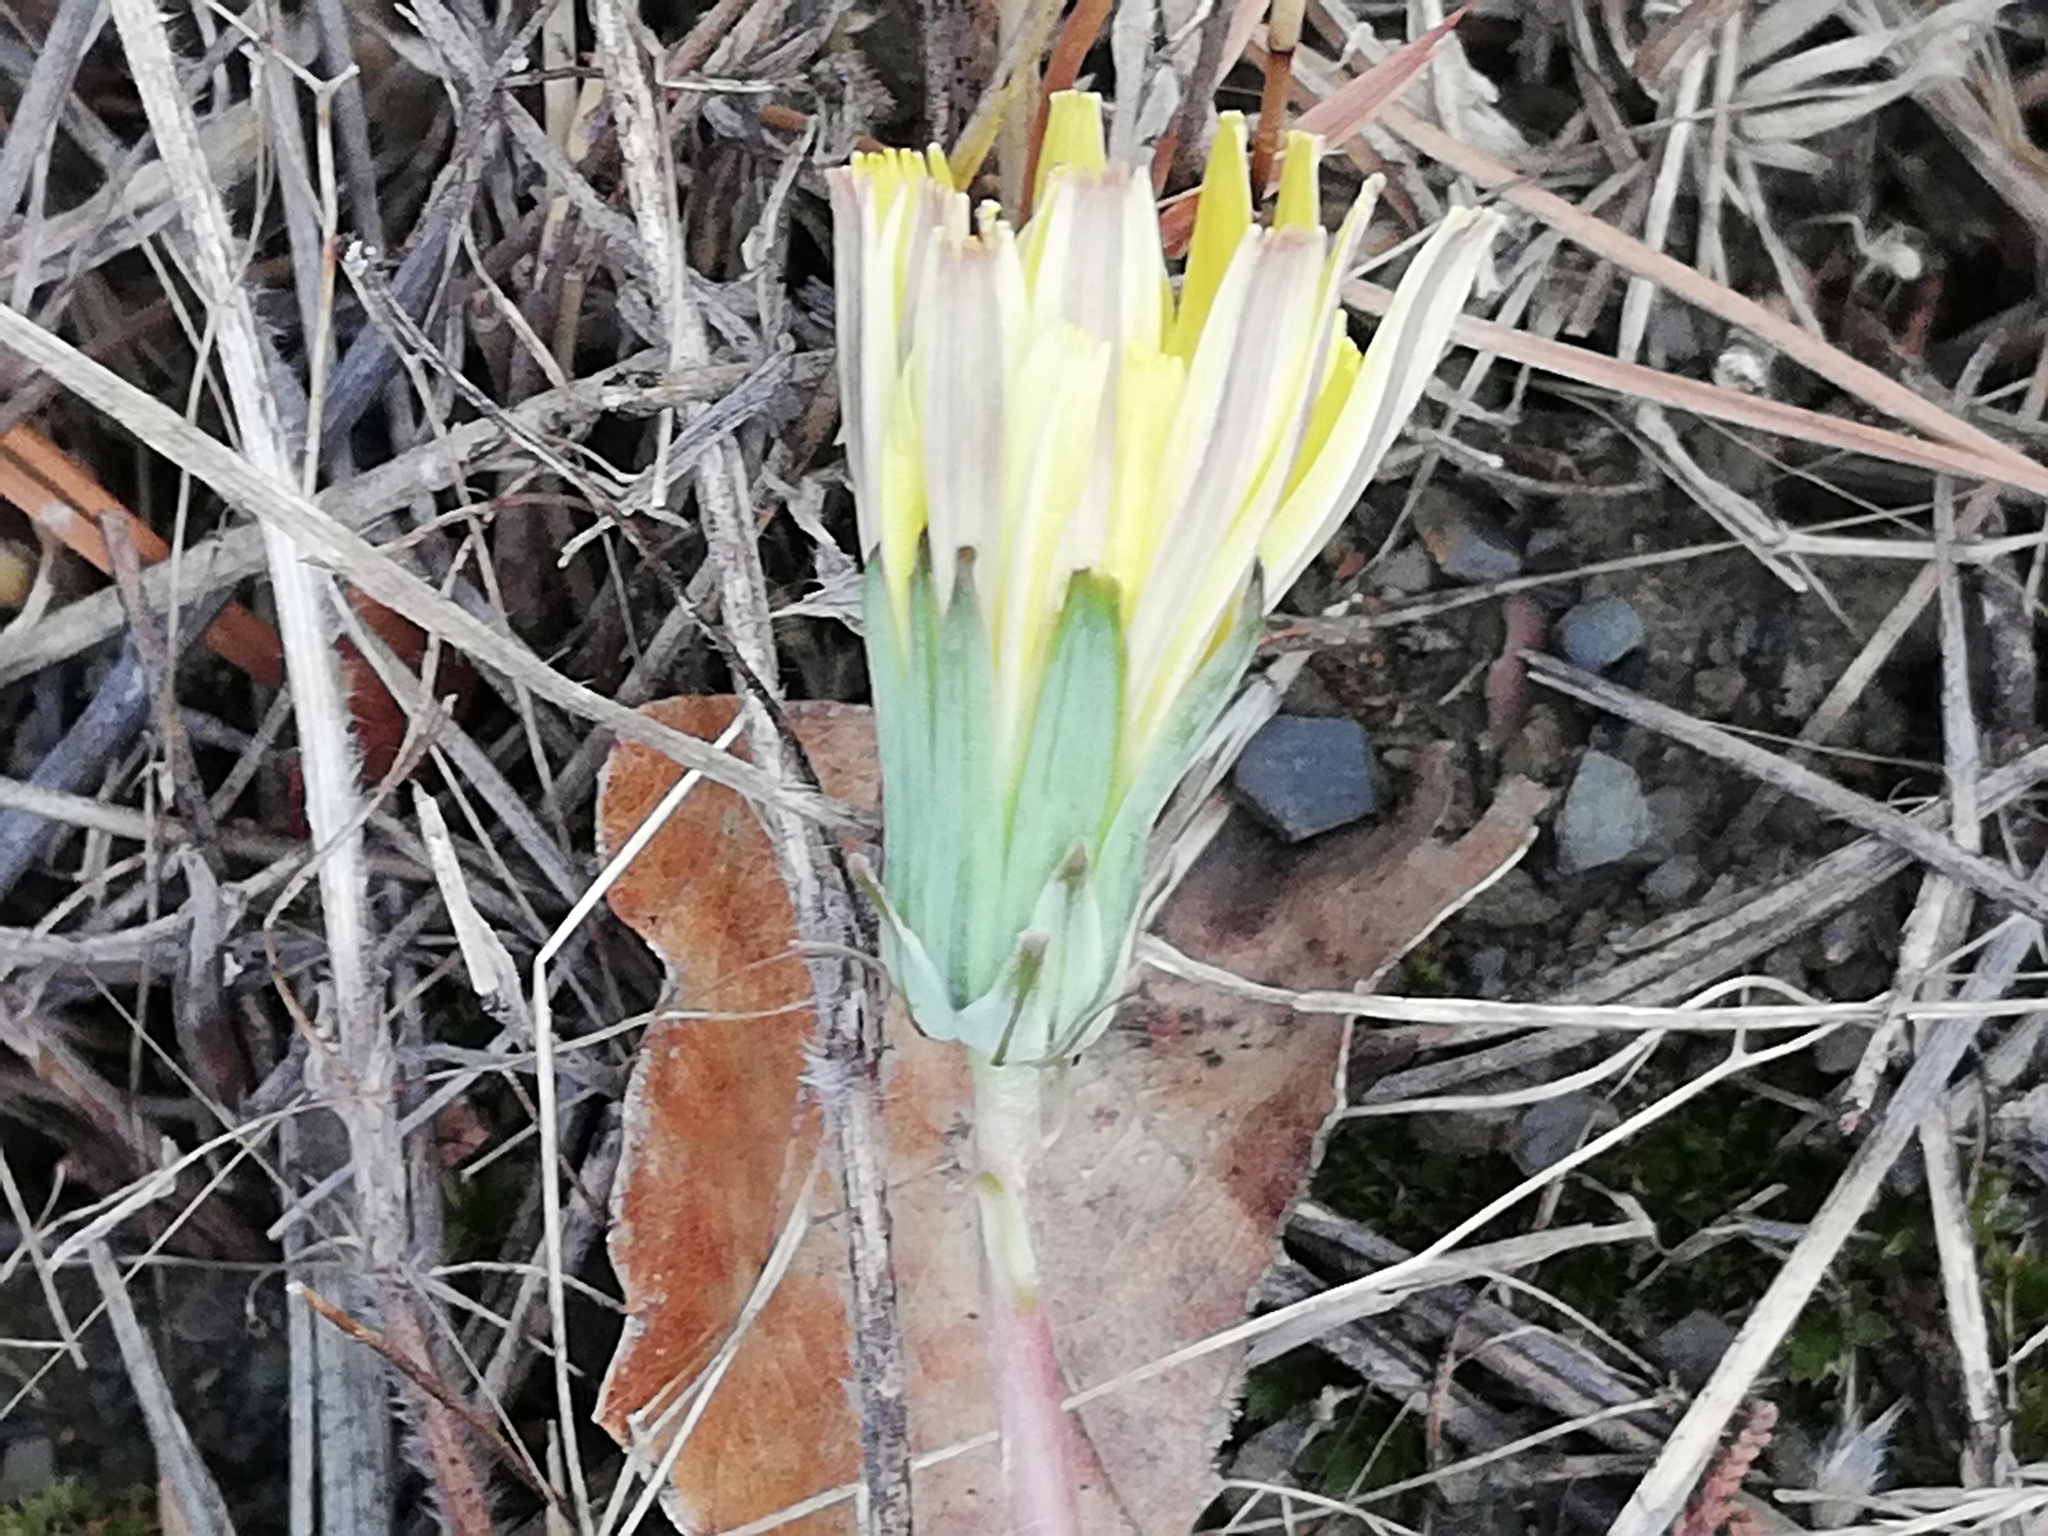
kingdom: Plantae
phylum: Tracheophyta
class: Magnoliopsida
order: Asterales
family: Asteraceae
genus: Taraxacum
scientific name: Taraxacum hybernum
